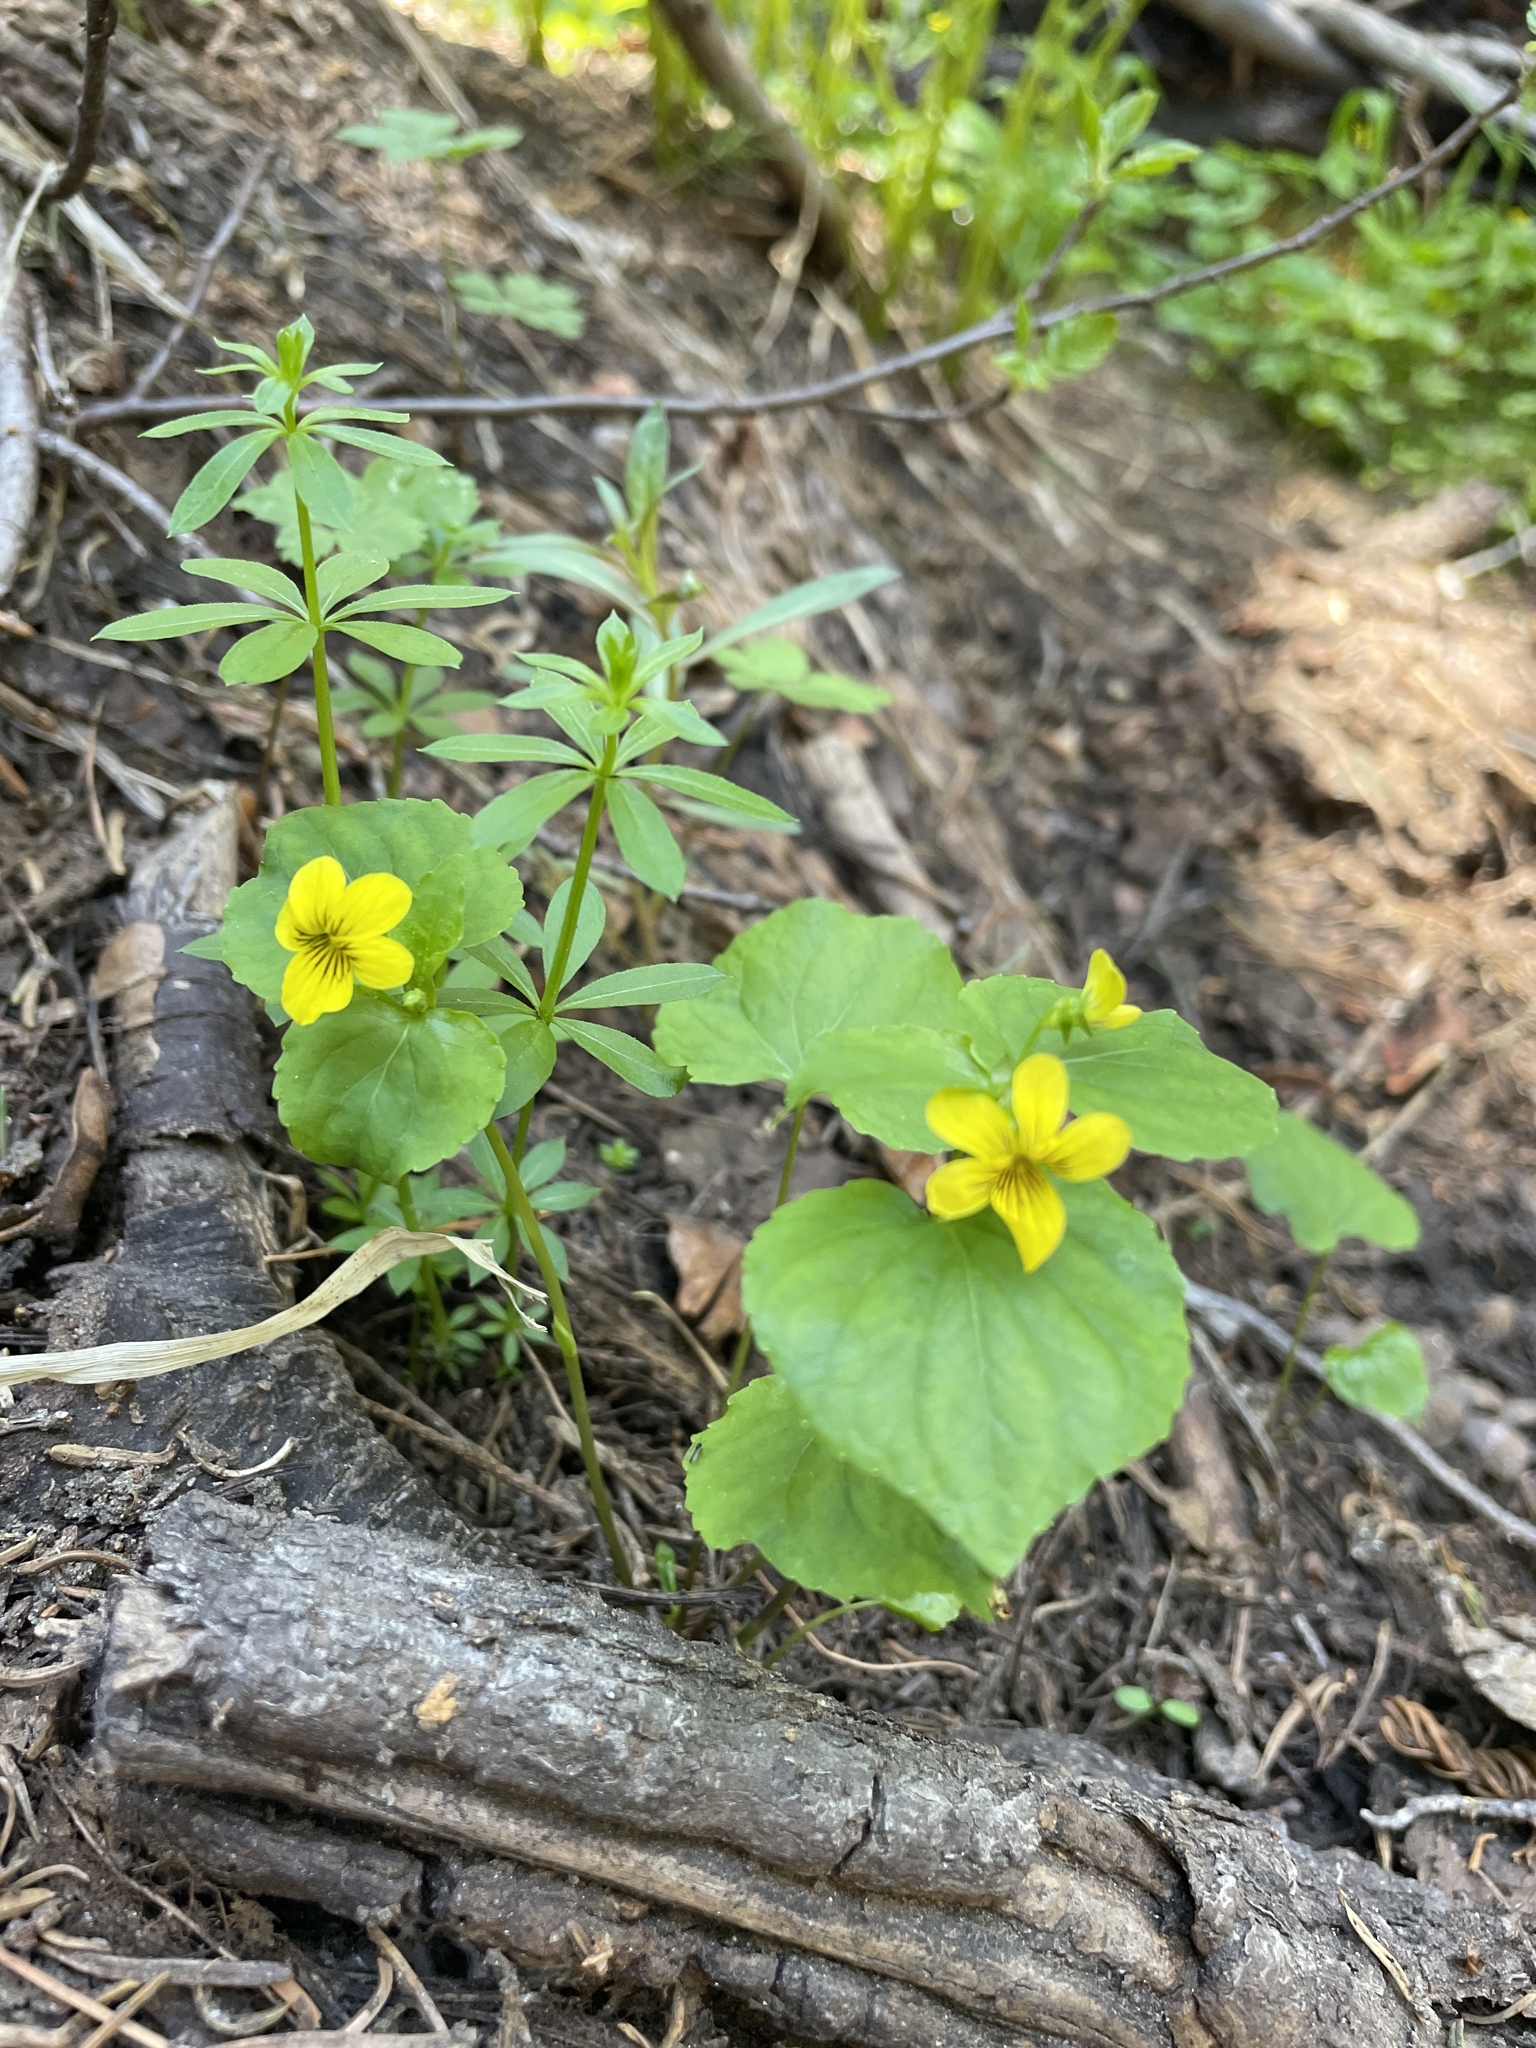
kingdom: Plantae
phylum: Tracheophyta
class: Magnoliopsida
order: Malpighiales
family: Violaceae
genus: Viola
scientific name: Viola glabella
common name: Stream violet
